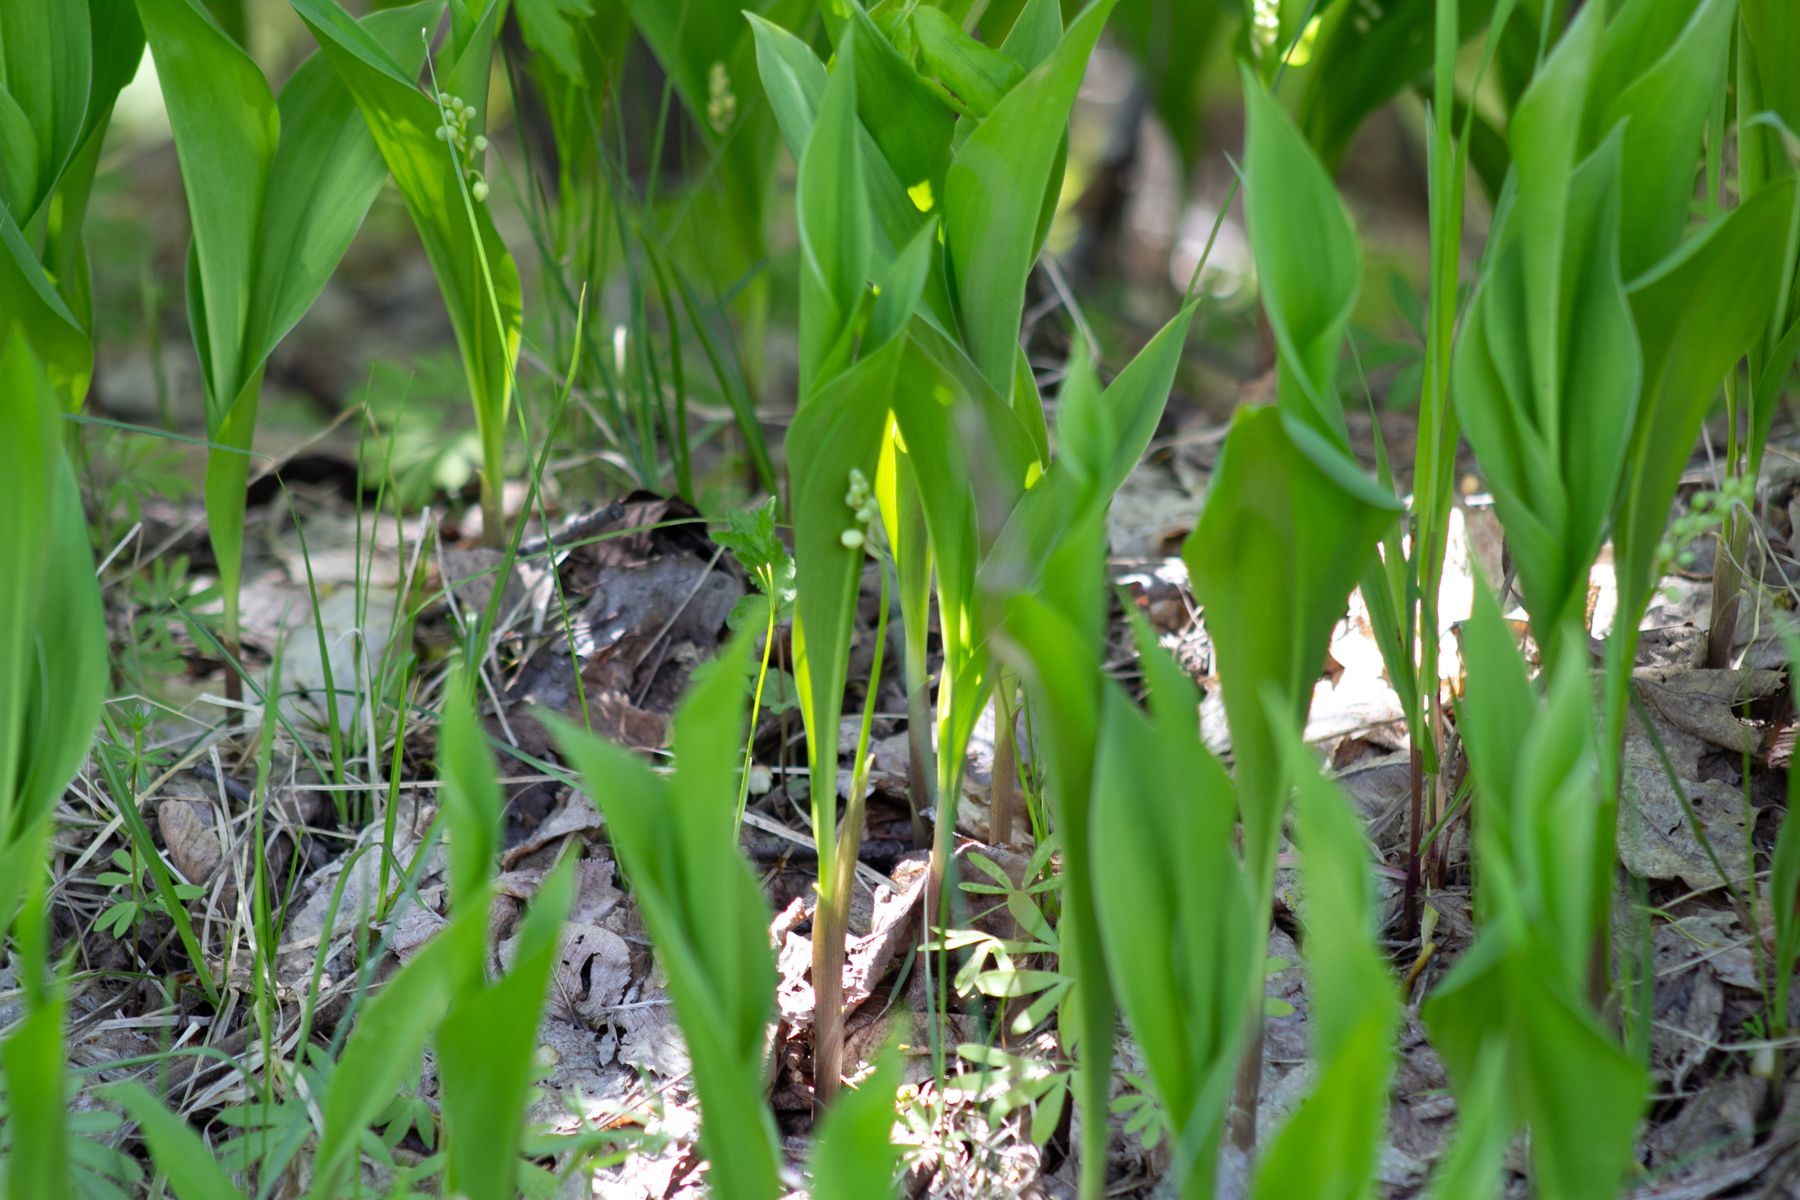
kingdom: Plantae
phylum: Tracheophyta
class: Liliopsida
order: Asparagales
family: Asparagaceae
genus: Convallaria
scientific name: Convallaria majalis
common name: Lily-of-the-valley
